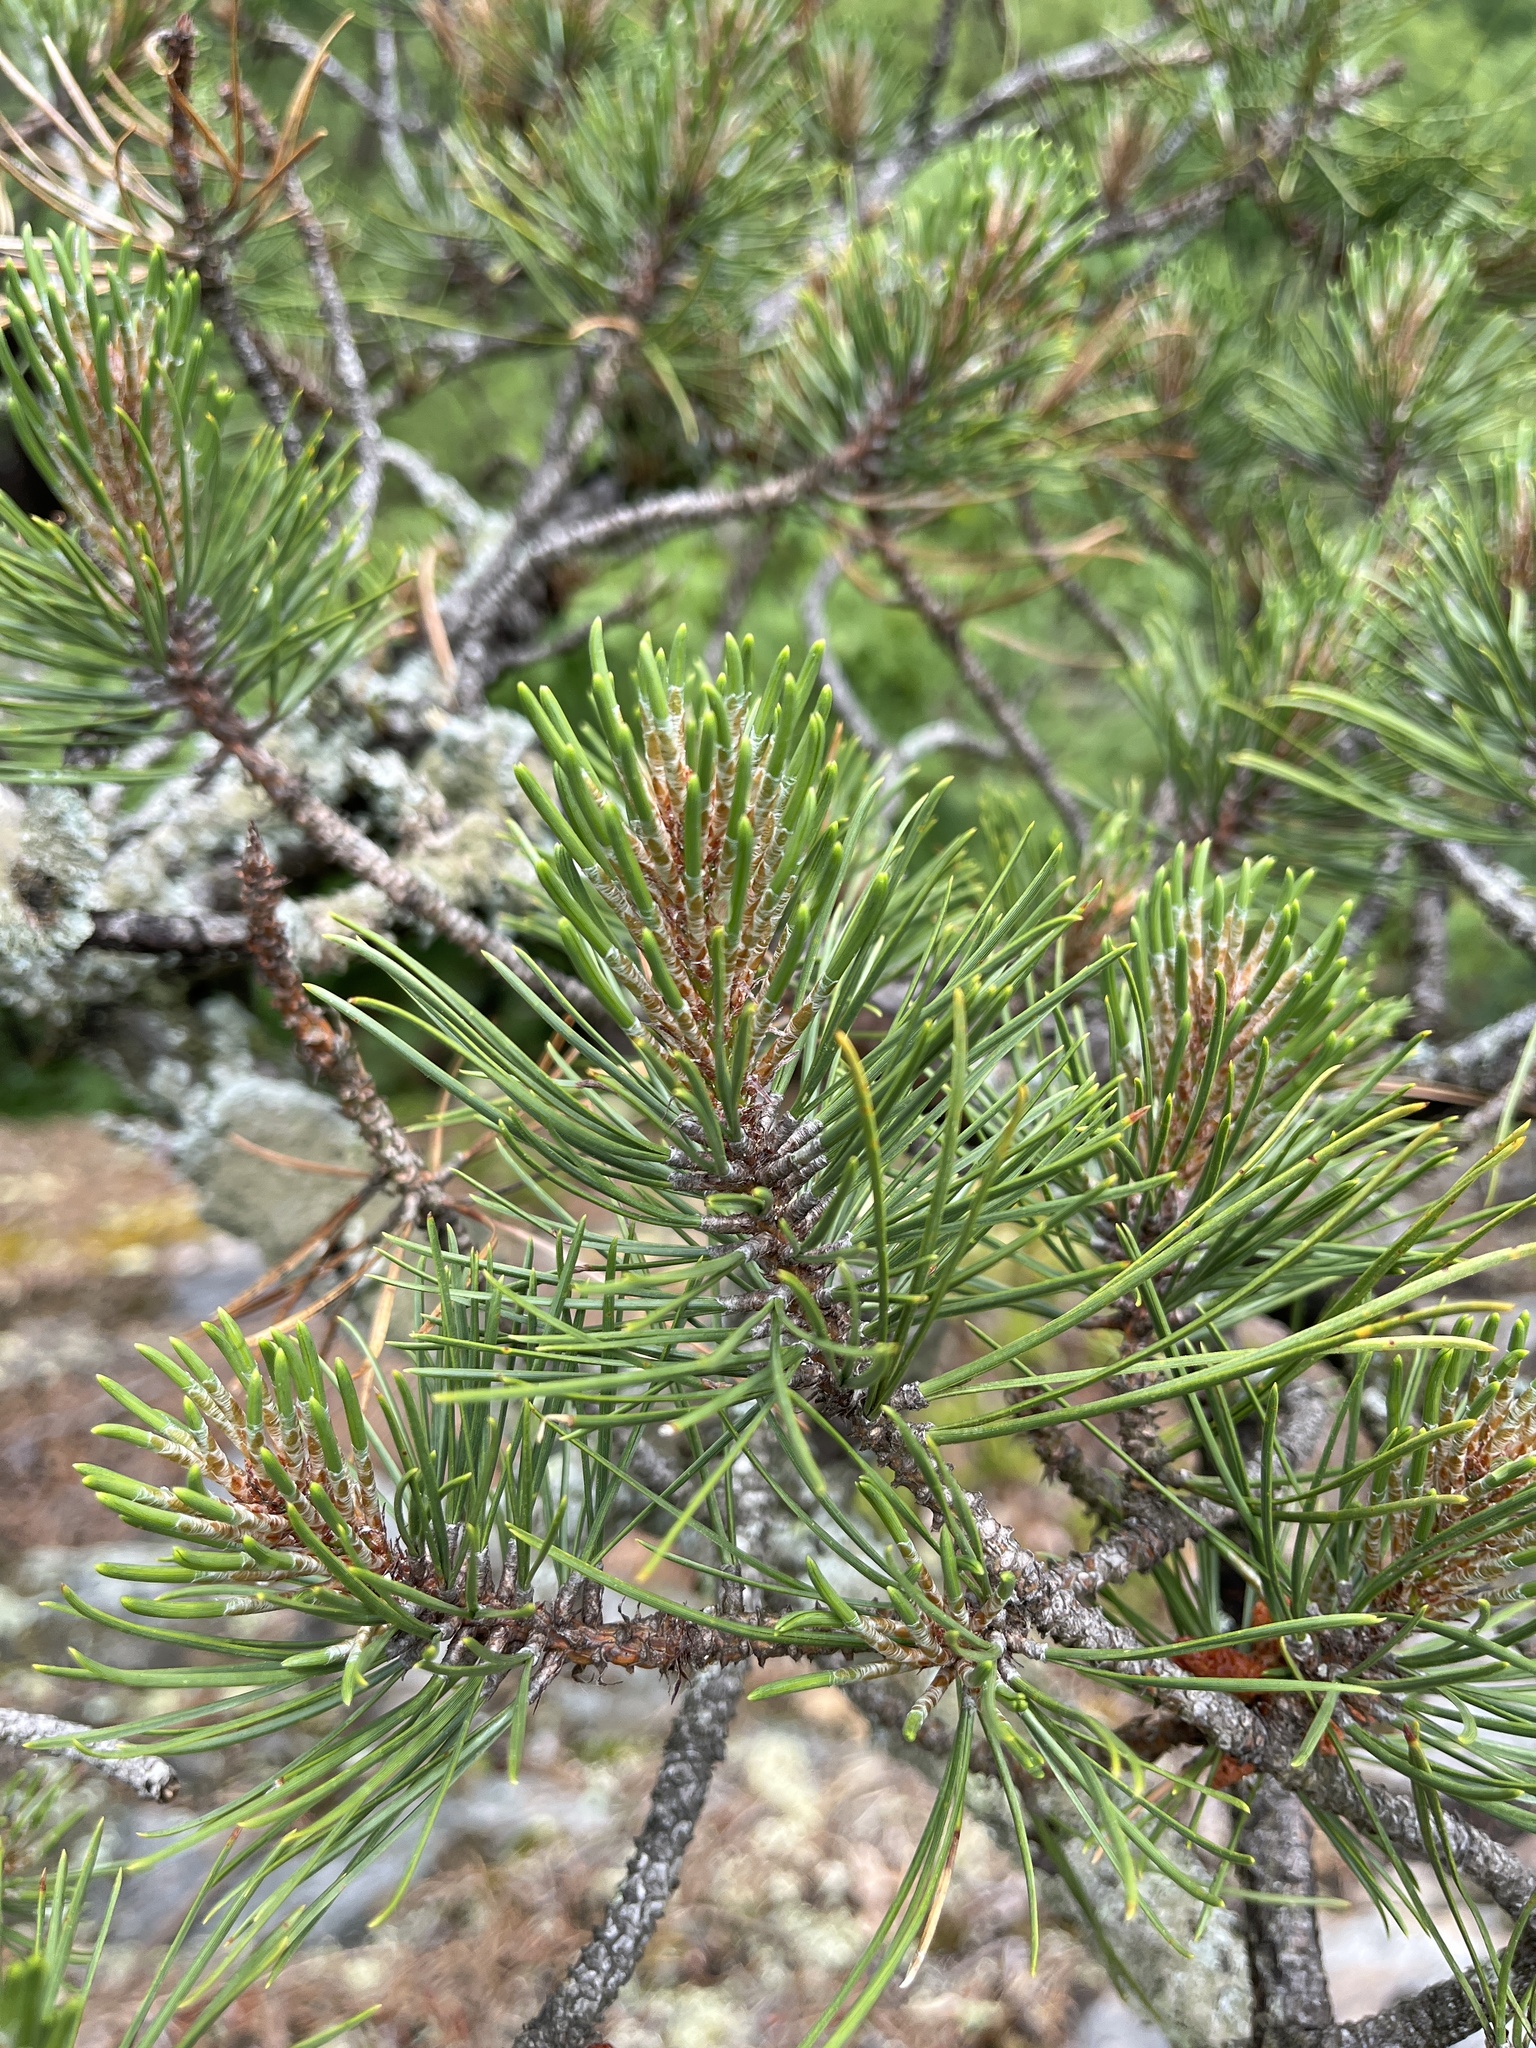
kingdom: Plantae
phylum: Tracheophyta
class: Pinopsida
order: Pinales
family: Pinaceae
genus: Pinus
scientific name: Pinus rigida
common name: Pitch pine
